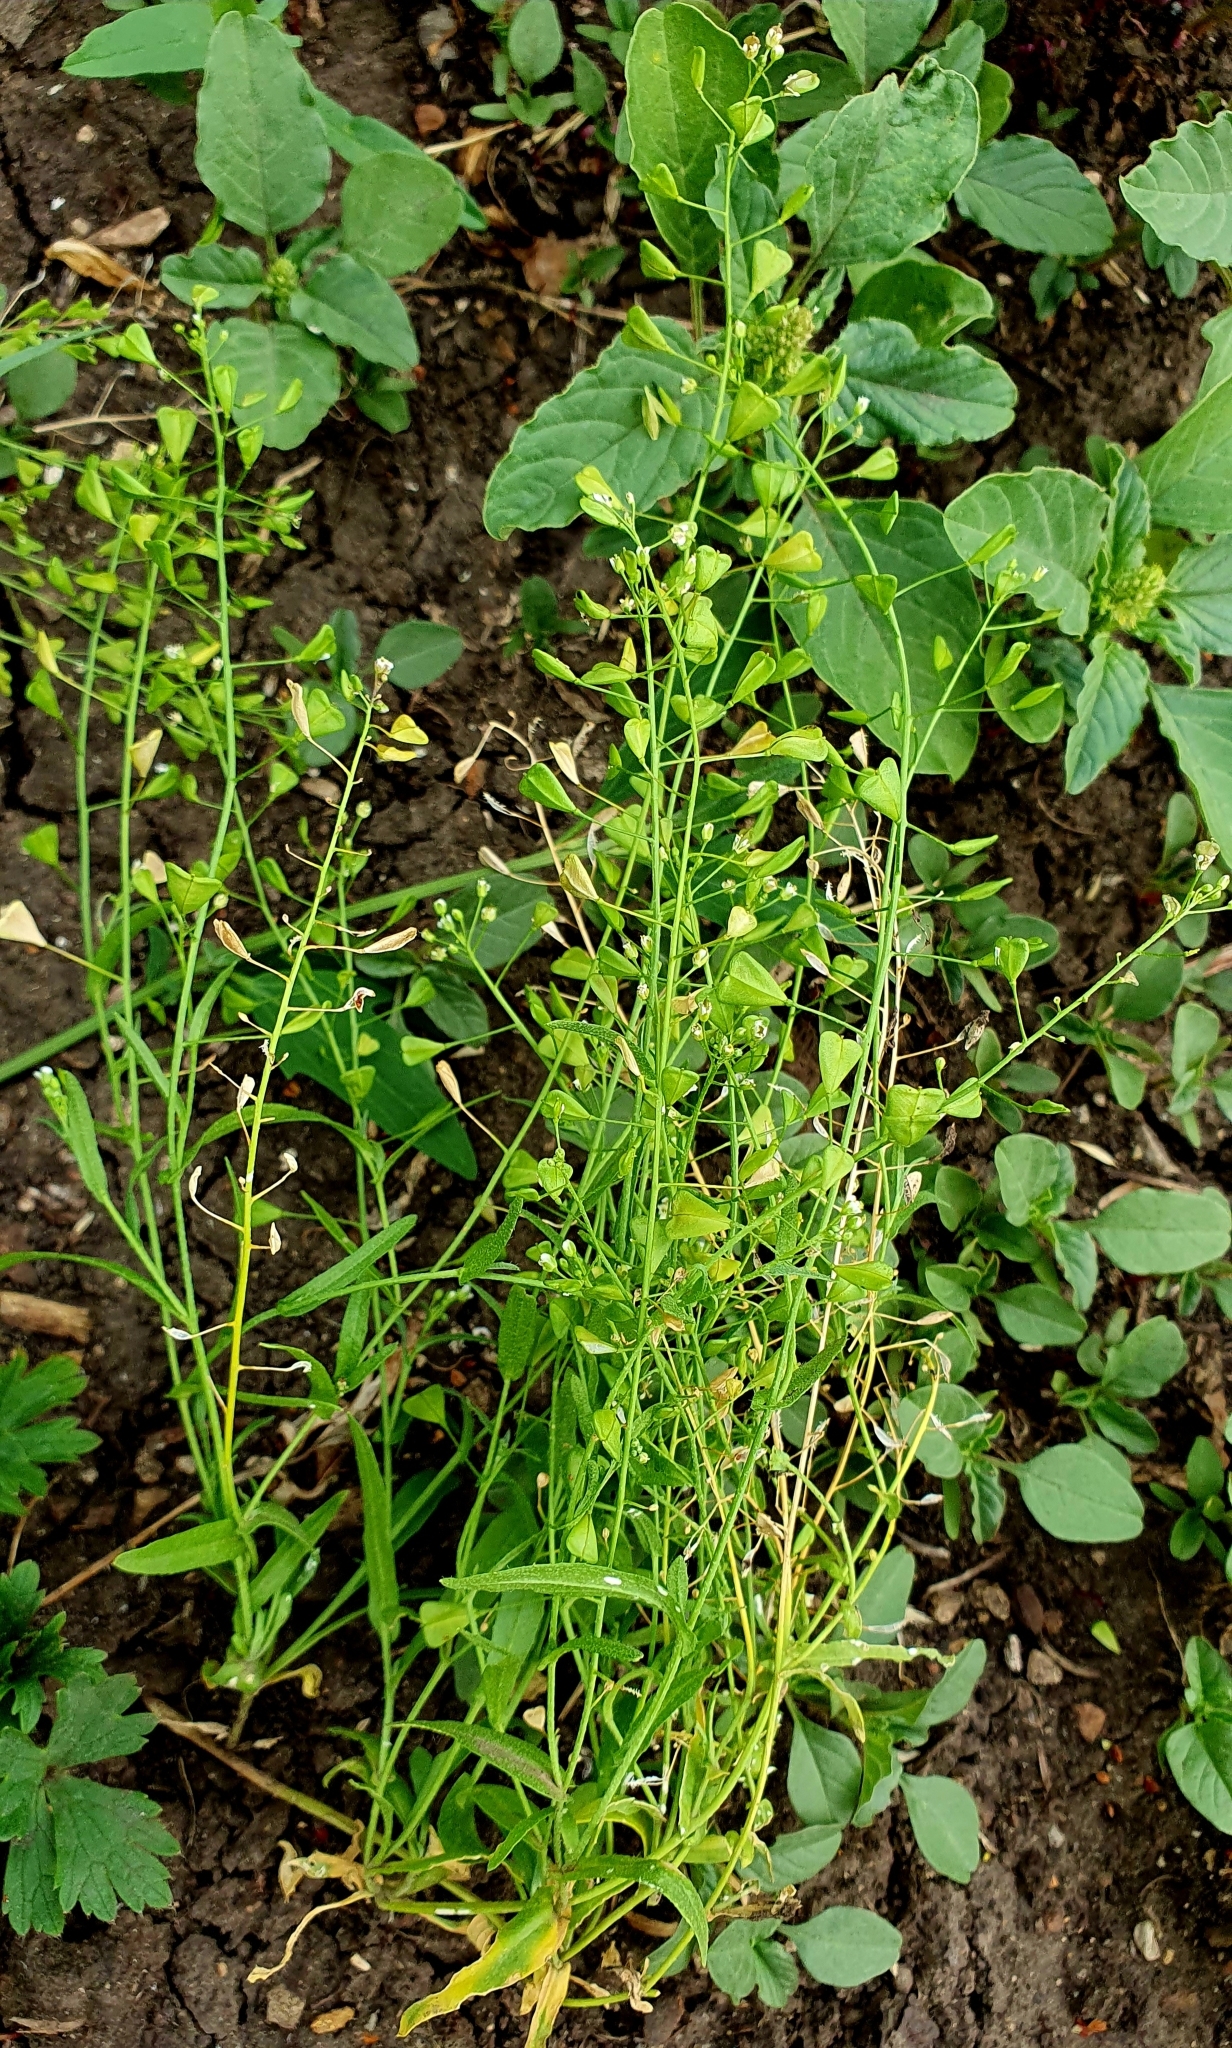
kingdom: Plantae
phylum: Tracheophyta
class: Magnoliopsida
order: Brassicales
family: Brassicaceae
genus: Capsella
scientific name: Capsella bursa-pastoris
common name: Shepherd's purse
